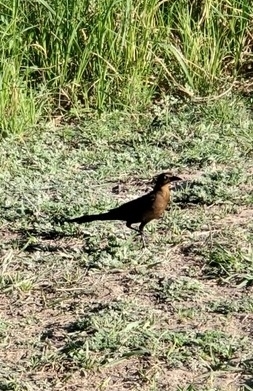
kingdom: Animalia
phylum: Chordata
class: Aves
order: Passeriformes
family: Icteridae
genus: Quiscalus
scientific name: Quiscalus mexicanus
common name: Great-tailed grackle
